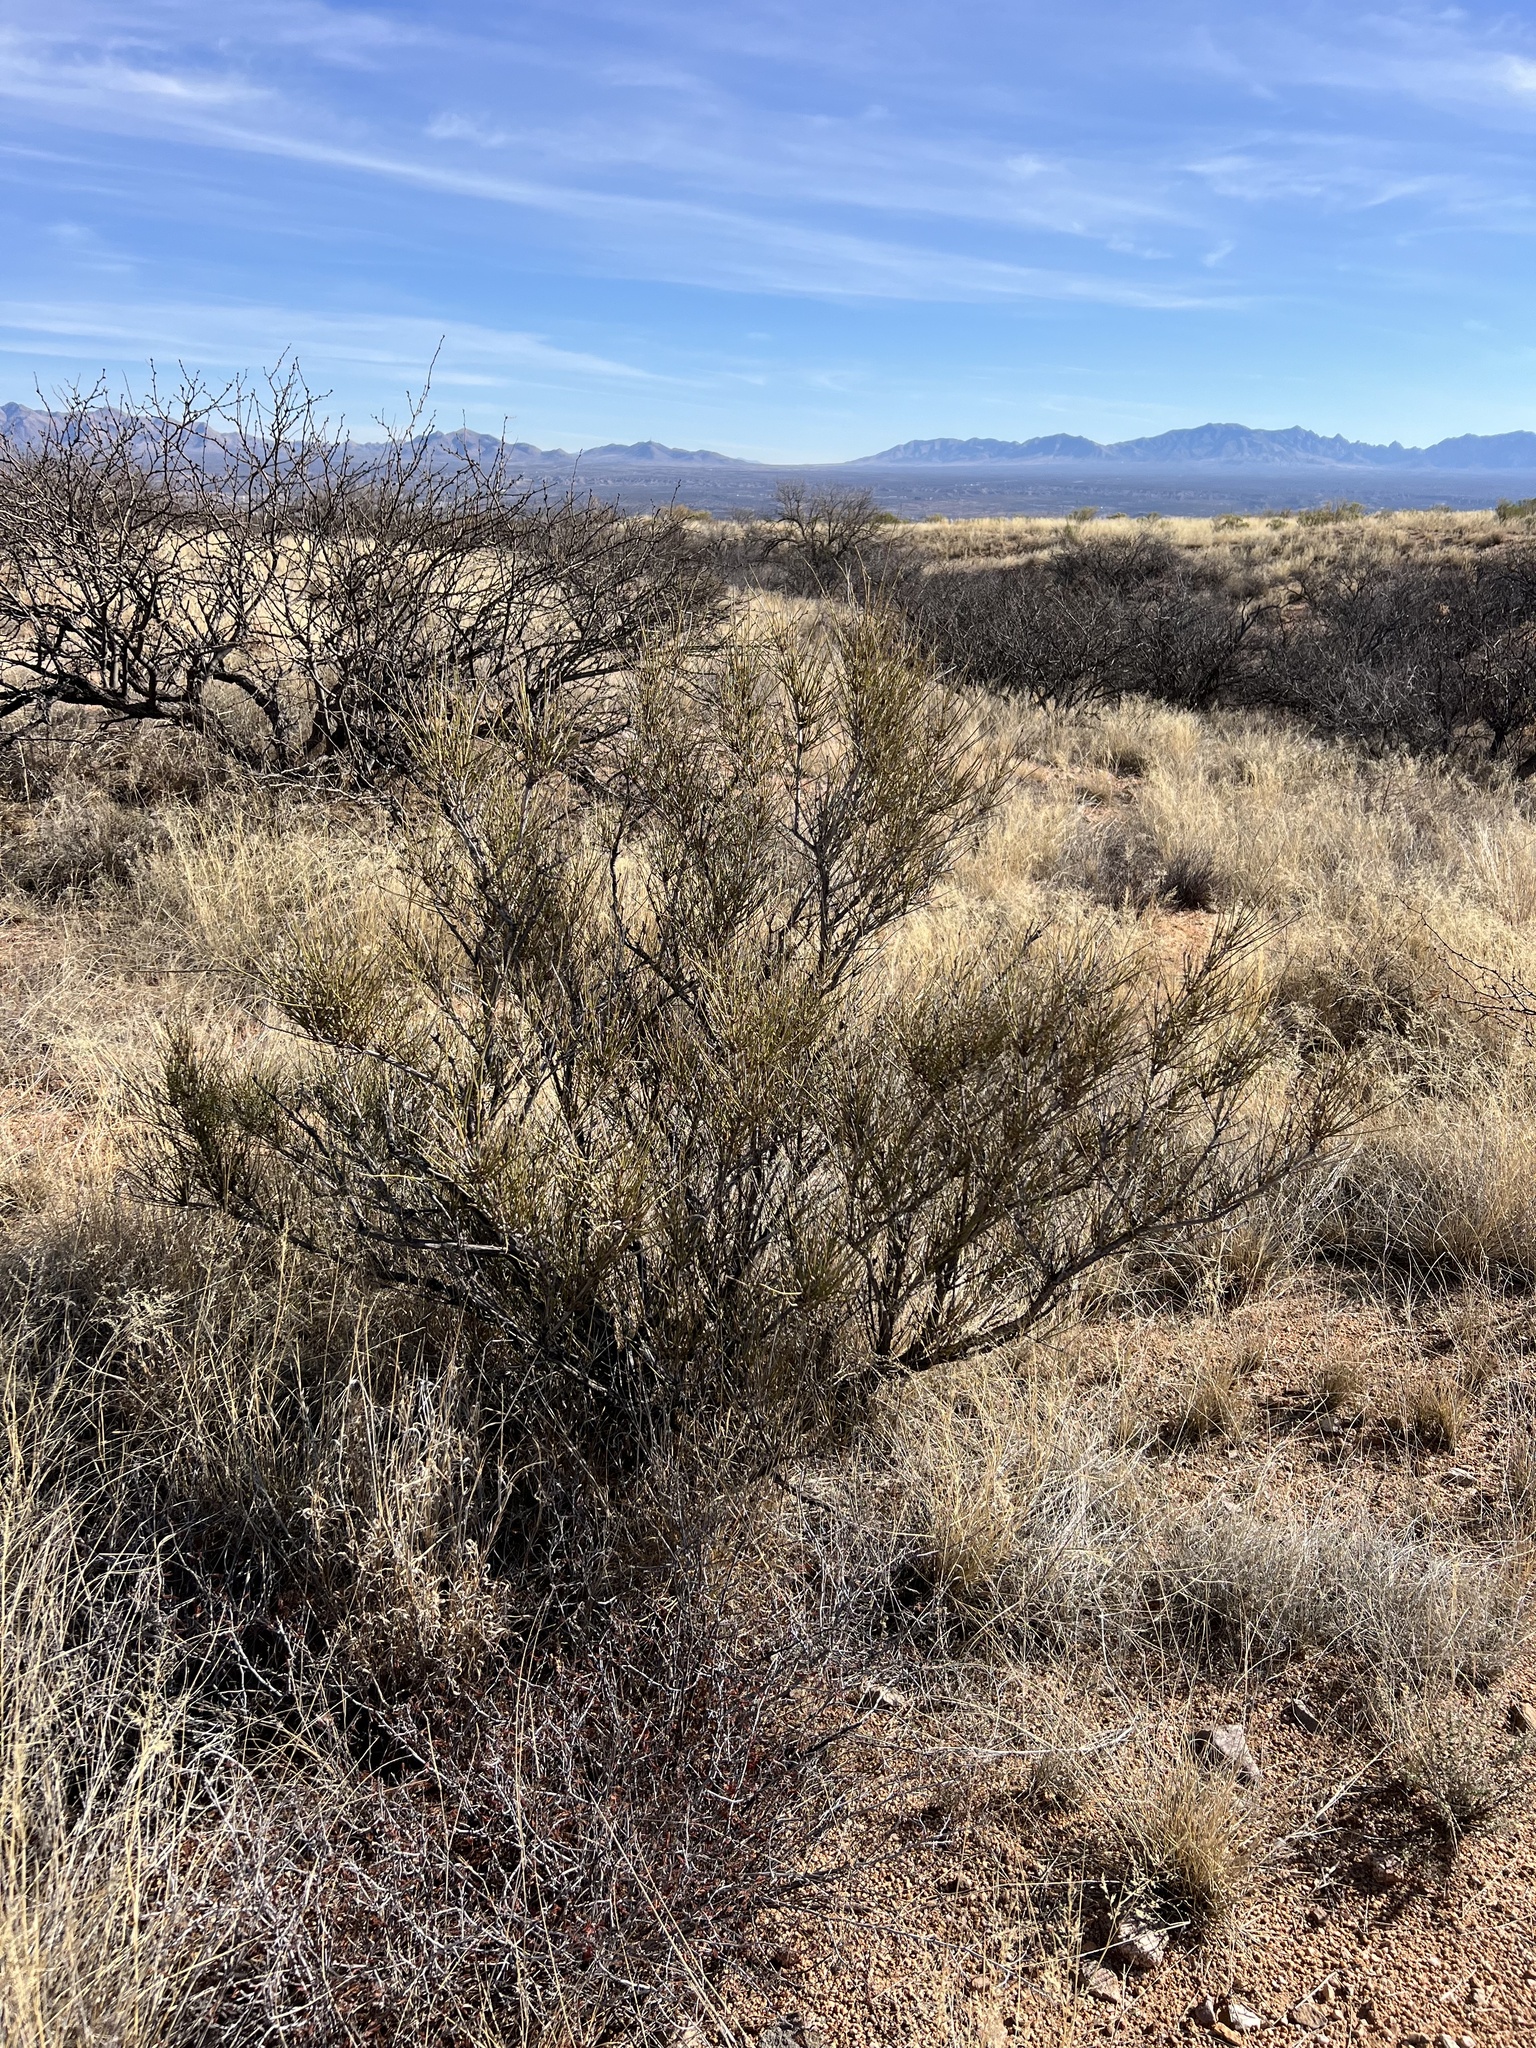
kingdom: Plantae
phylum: Tracheophyta
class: Gnetopsida
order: Ephedrales
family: Ephedraceae
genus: Ephedra
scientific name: Ephedra trifurca
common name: Mexican-tea
